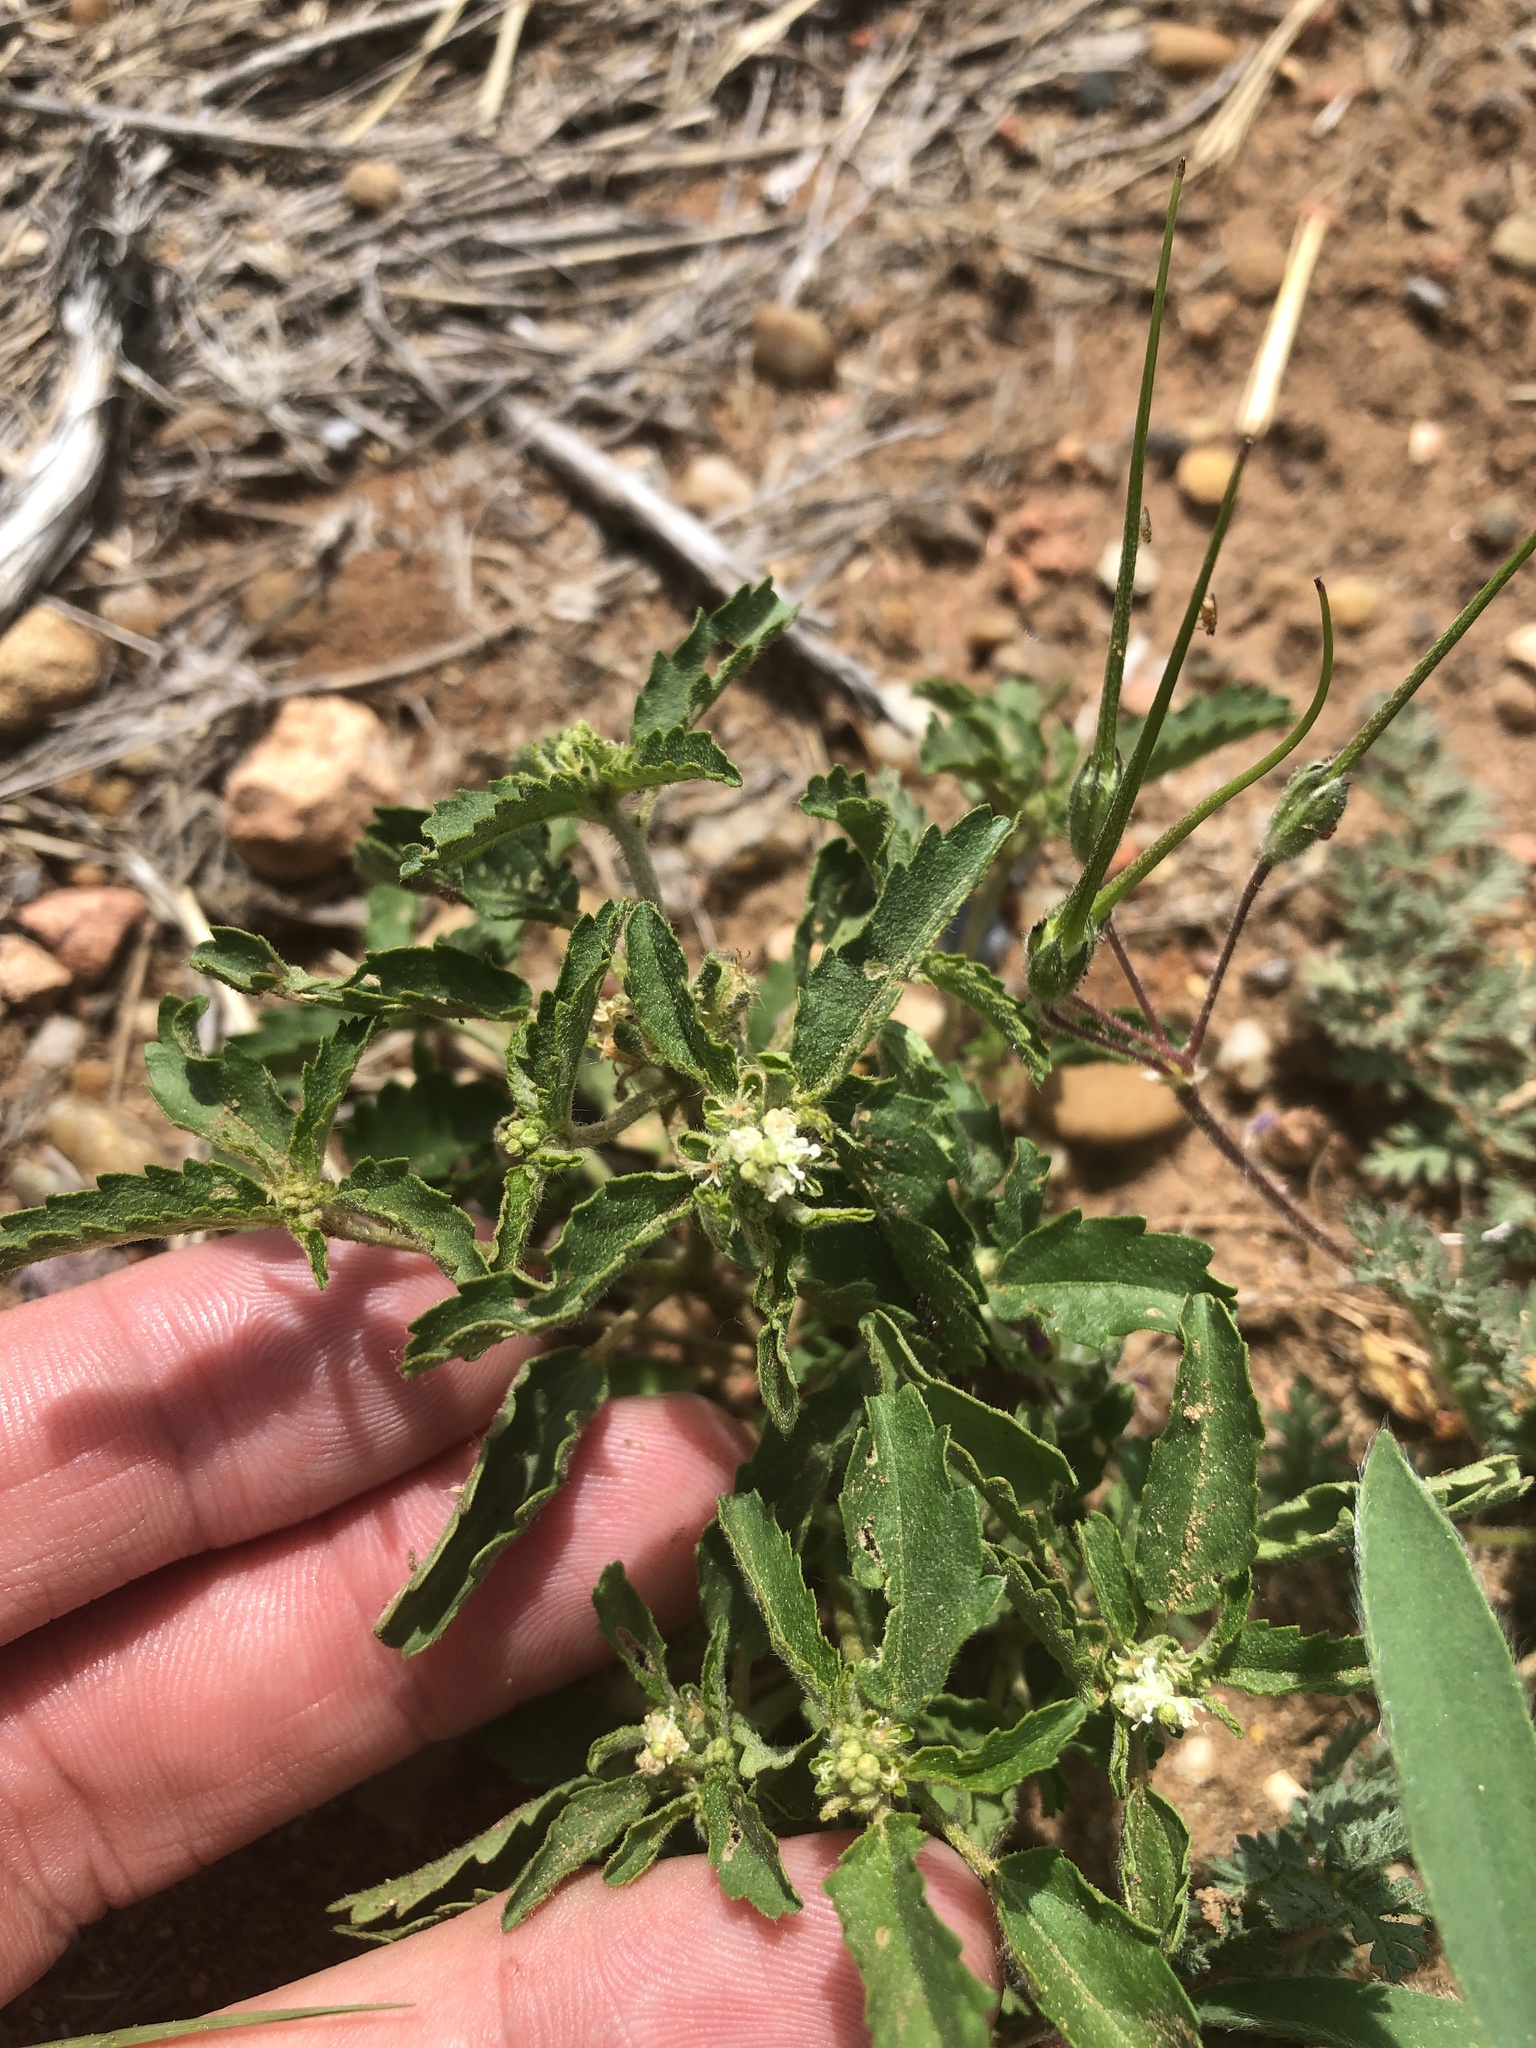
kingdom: Plantae
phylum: Tracheophyta
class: Magnoliopsida
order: Malpighiales
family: Euphorbiaceae
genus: Croton
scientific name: Croton glandulosus
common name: Tropic croton
